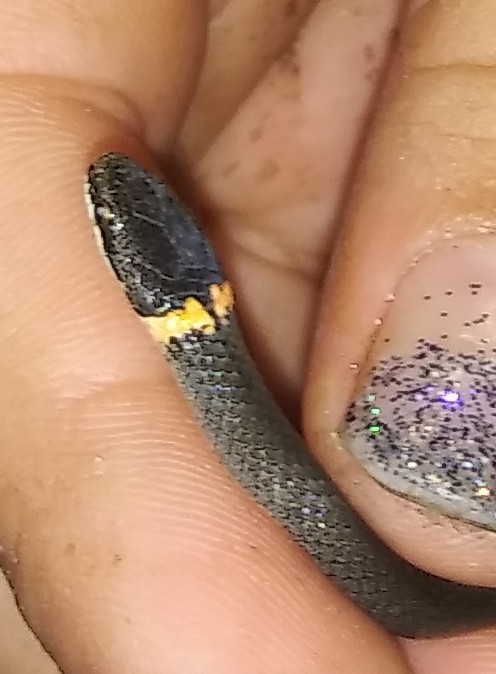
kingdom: Animalia
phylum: Chordata
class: Squamata
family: Colubridae
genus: Diadophis
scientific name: Diadophis punctatus
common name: Ringneck snake
